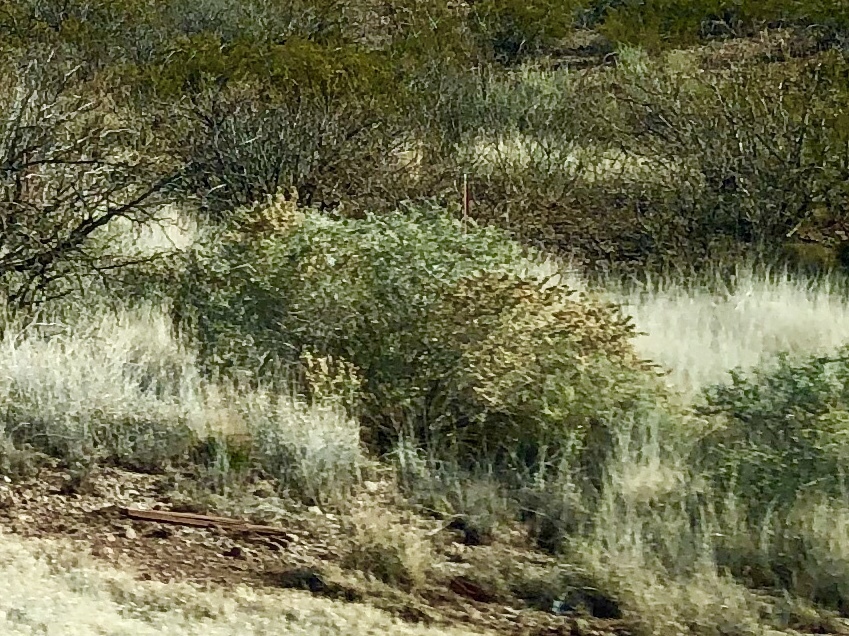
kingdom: Plantae
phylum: Tracheophyta
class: Magnoliopsida
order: Caryophyllales
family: Amaranthaceae
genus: Atriplex
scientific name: Atriplex canescens
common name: Four-wing saltbush
